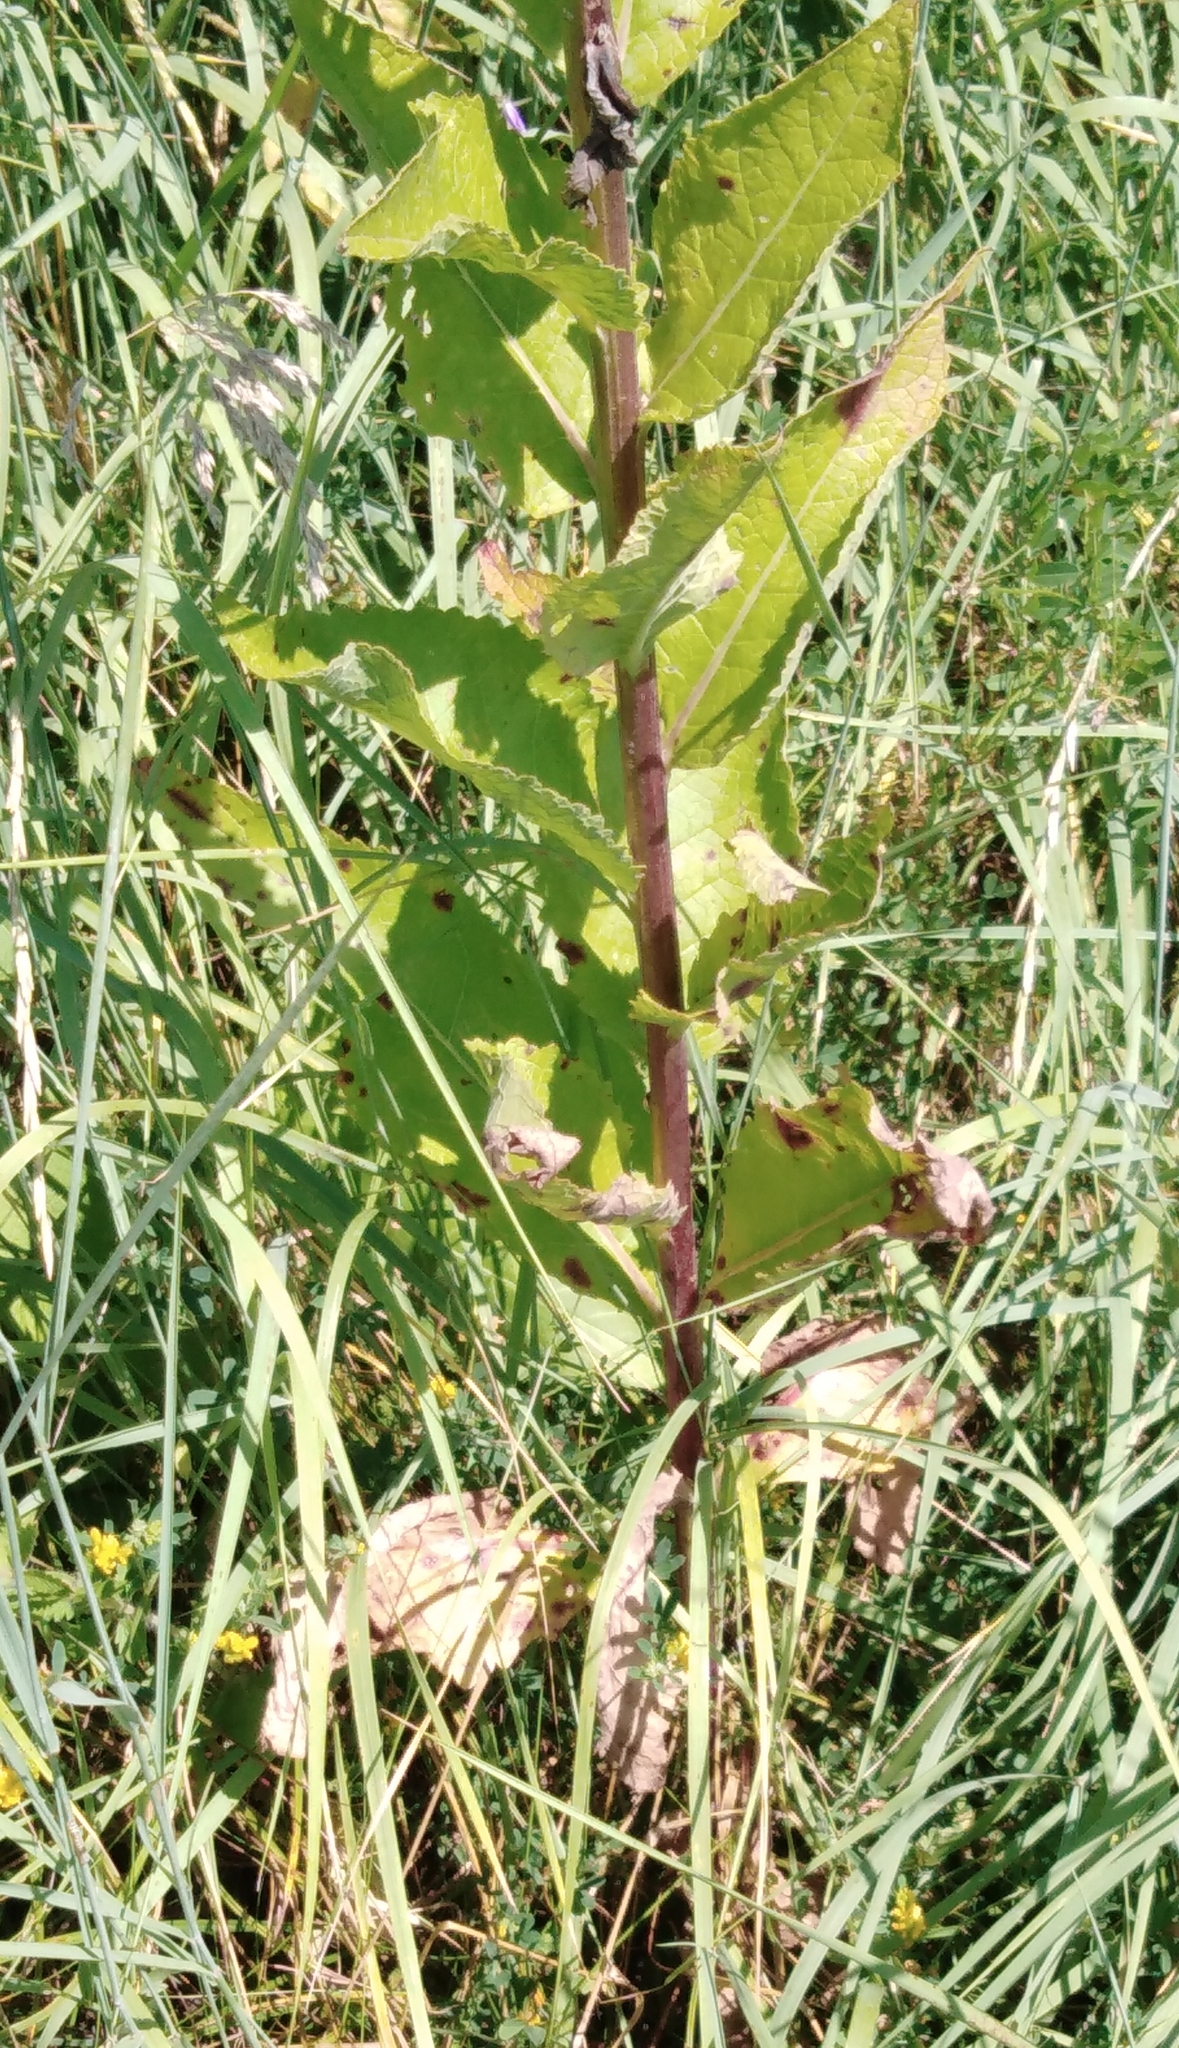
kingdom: Plantae
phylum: Tracheophyta
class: Magnoliopsida
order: Lamiales
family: Scrophulariaceae
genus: Verbascum
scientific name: Verbascum lychnitis
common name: White mullein
